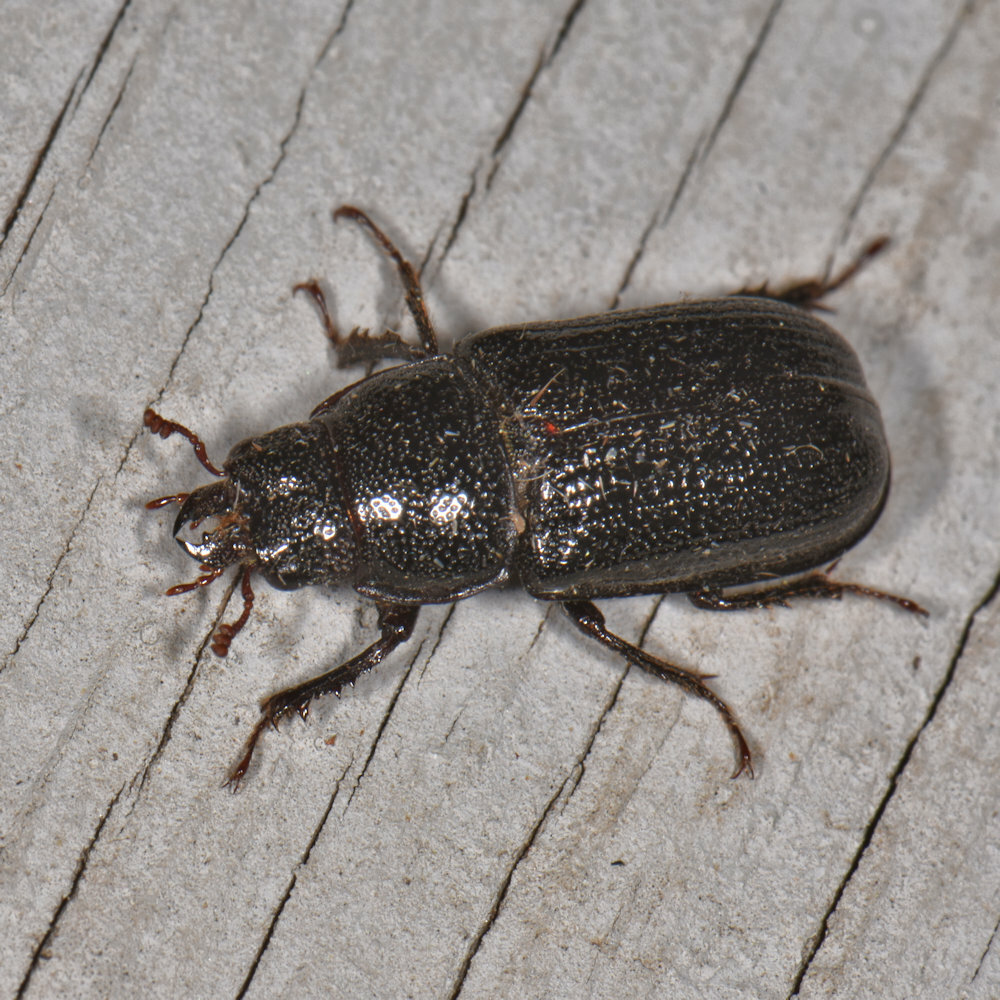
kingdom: Animalia
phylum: Arthropoda
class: Insecta
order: Coleoptera
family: Lucanidae
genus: Ceruchus
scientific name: Ceruchus piceus
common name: Red-rot decay stag beetle
